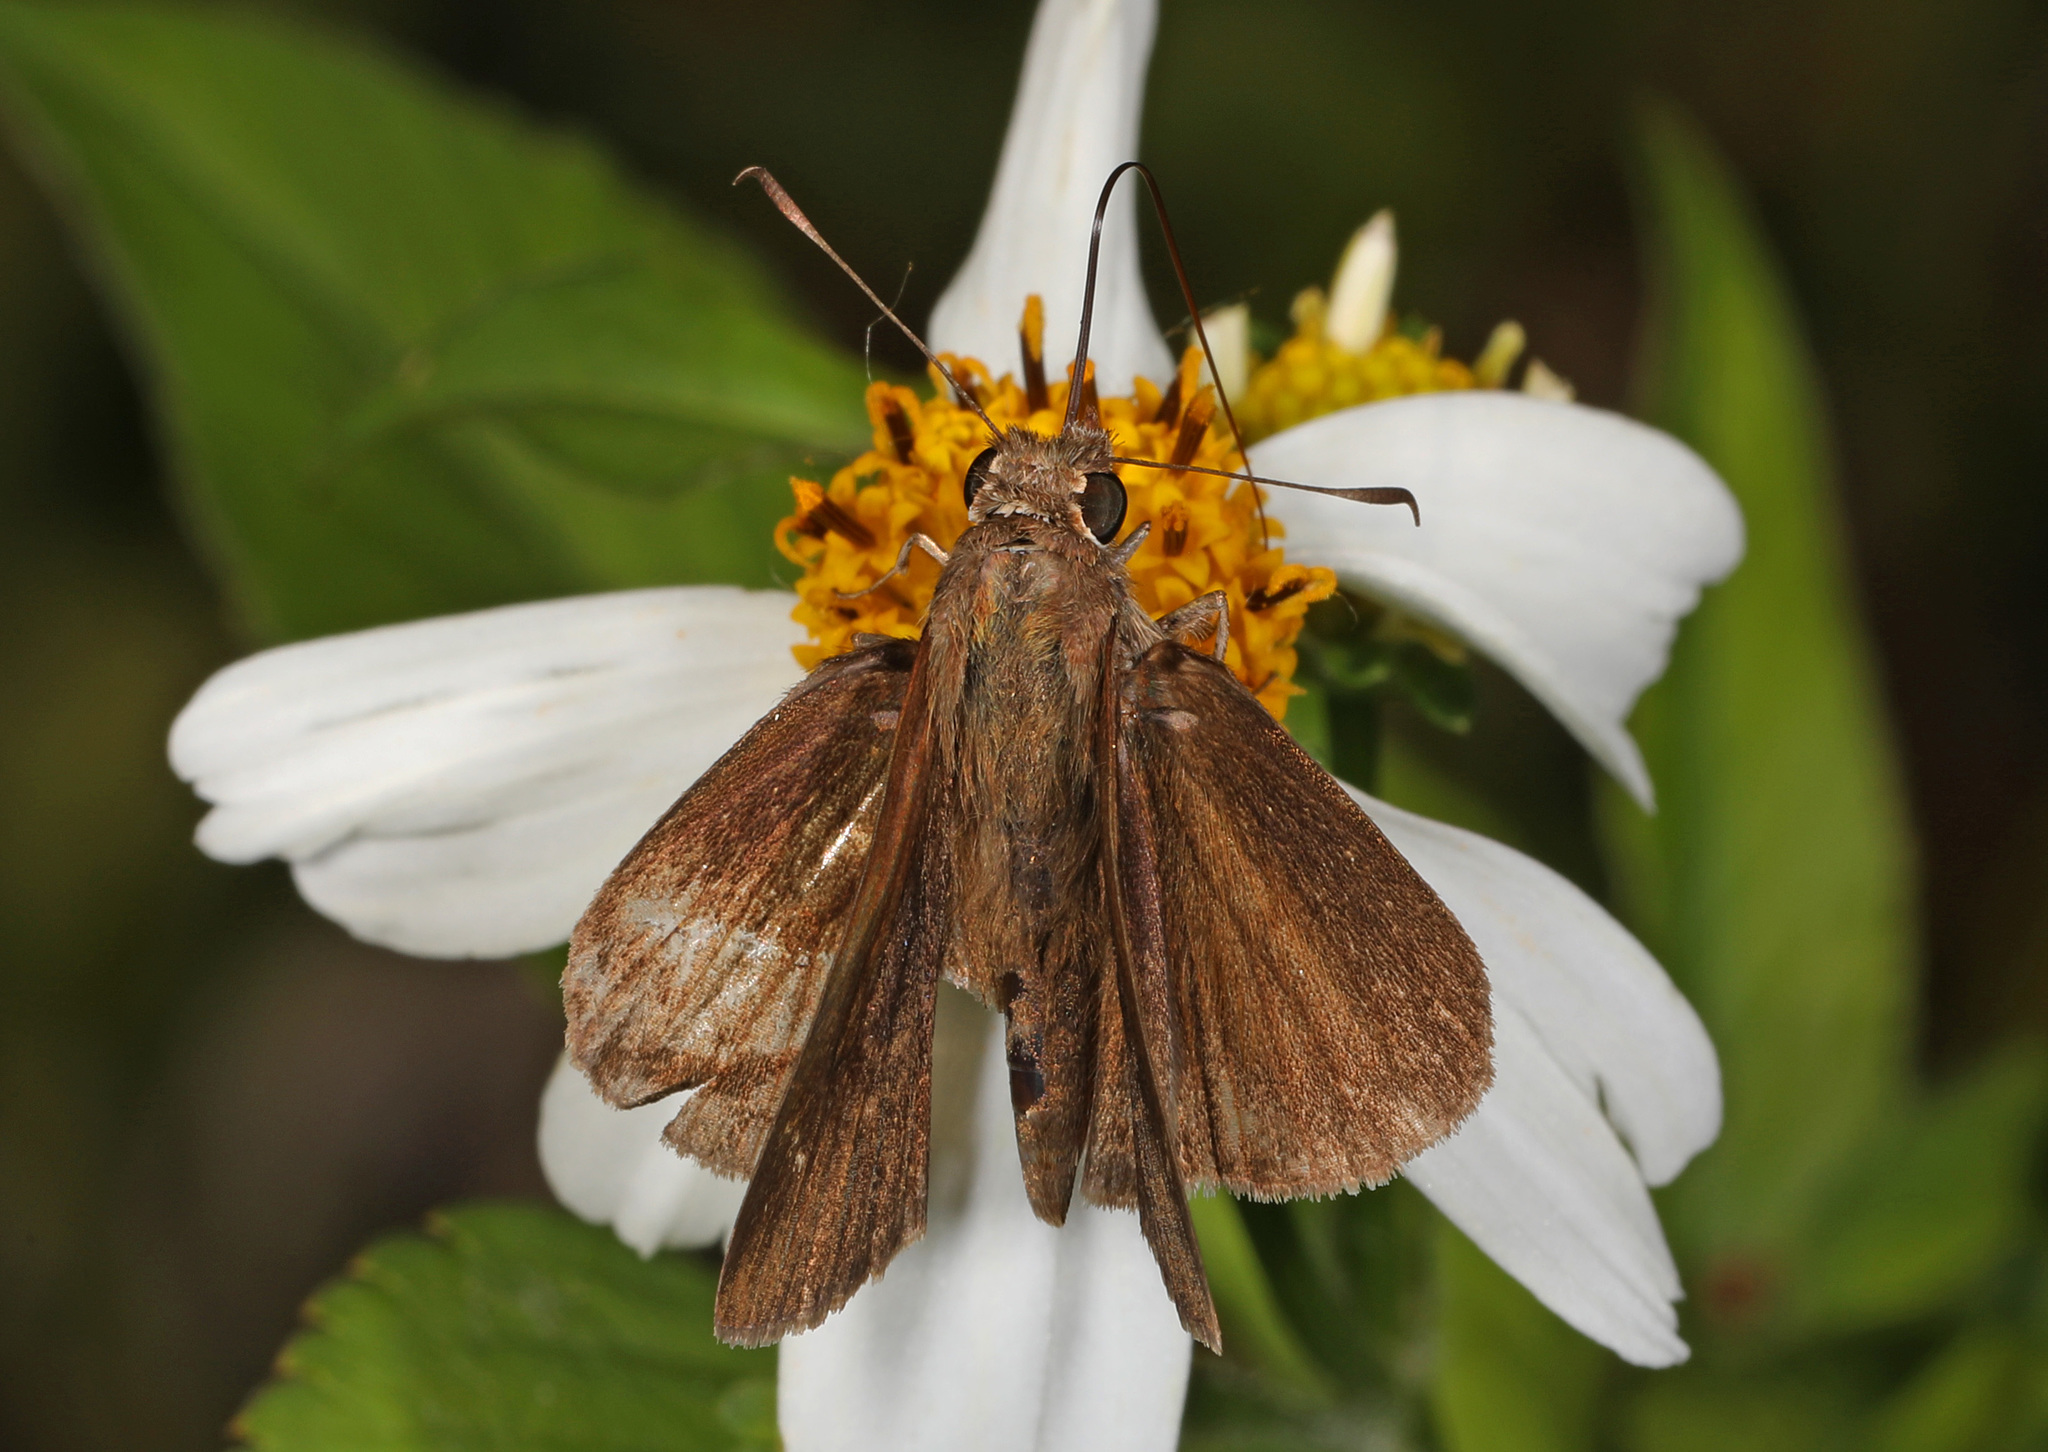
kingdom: Animalia
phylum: Arthropoda
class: Insecta
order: Lepidoptera
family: Hesperiidae
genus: Asbolis
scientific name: Asbolis capucinus
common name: Monk skipper
